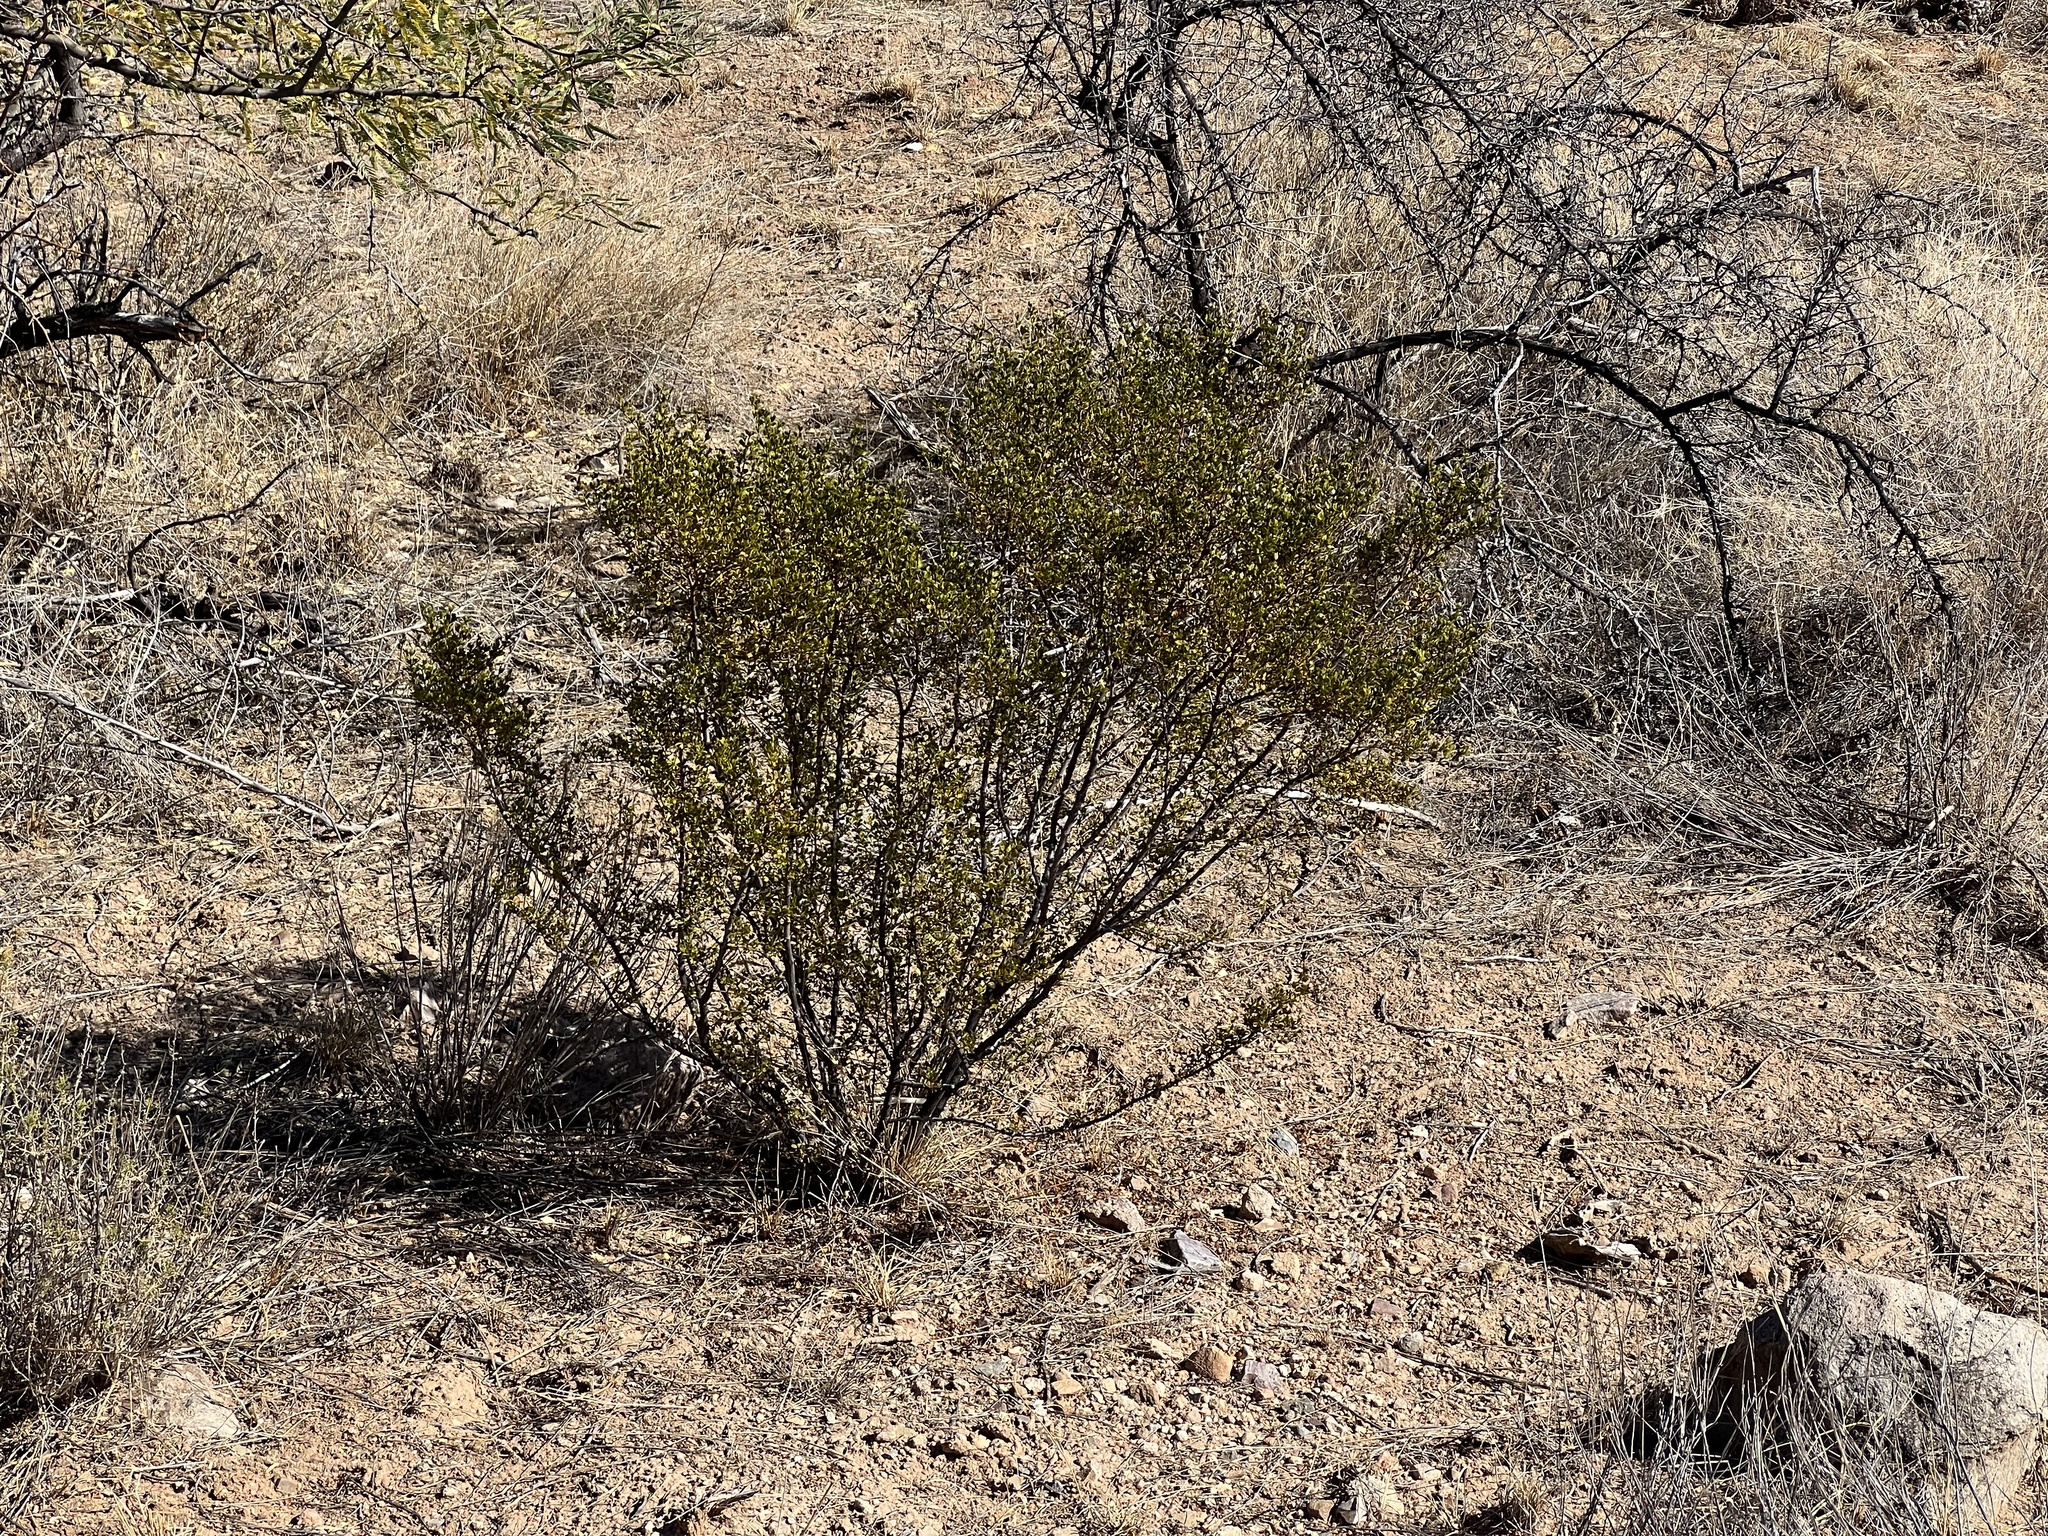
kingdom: Plantae
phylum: Tracheophyta
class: Magnoliopsida
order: Zygophyllales
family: Zygophyllaceae
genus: Larrea
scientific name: Larrea tridentata
